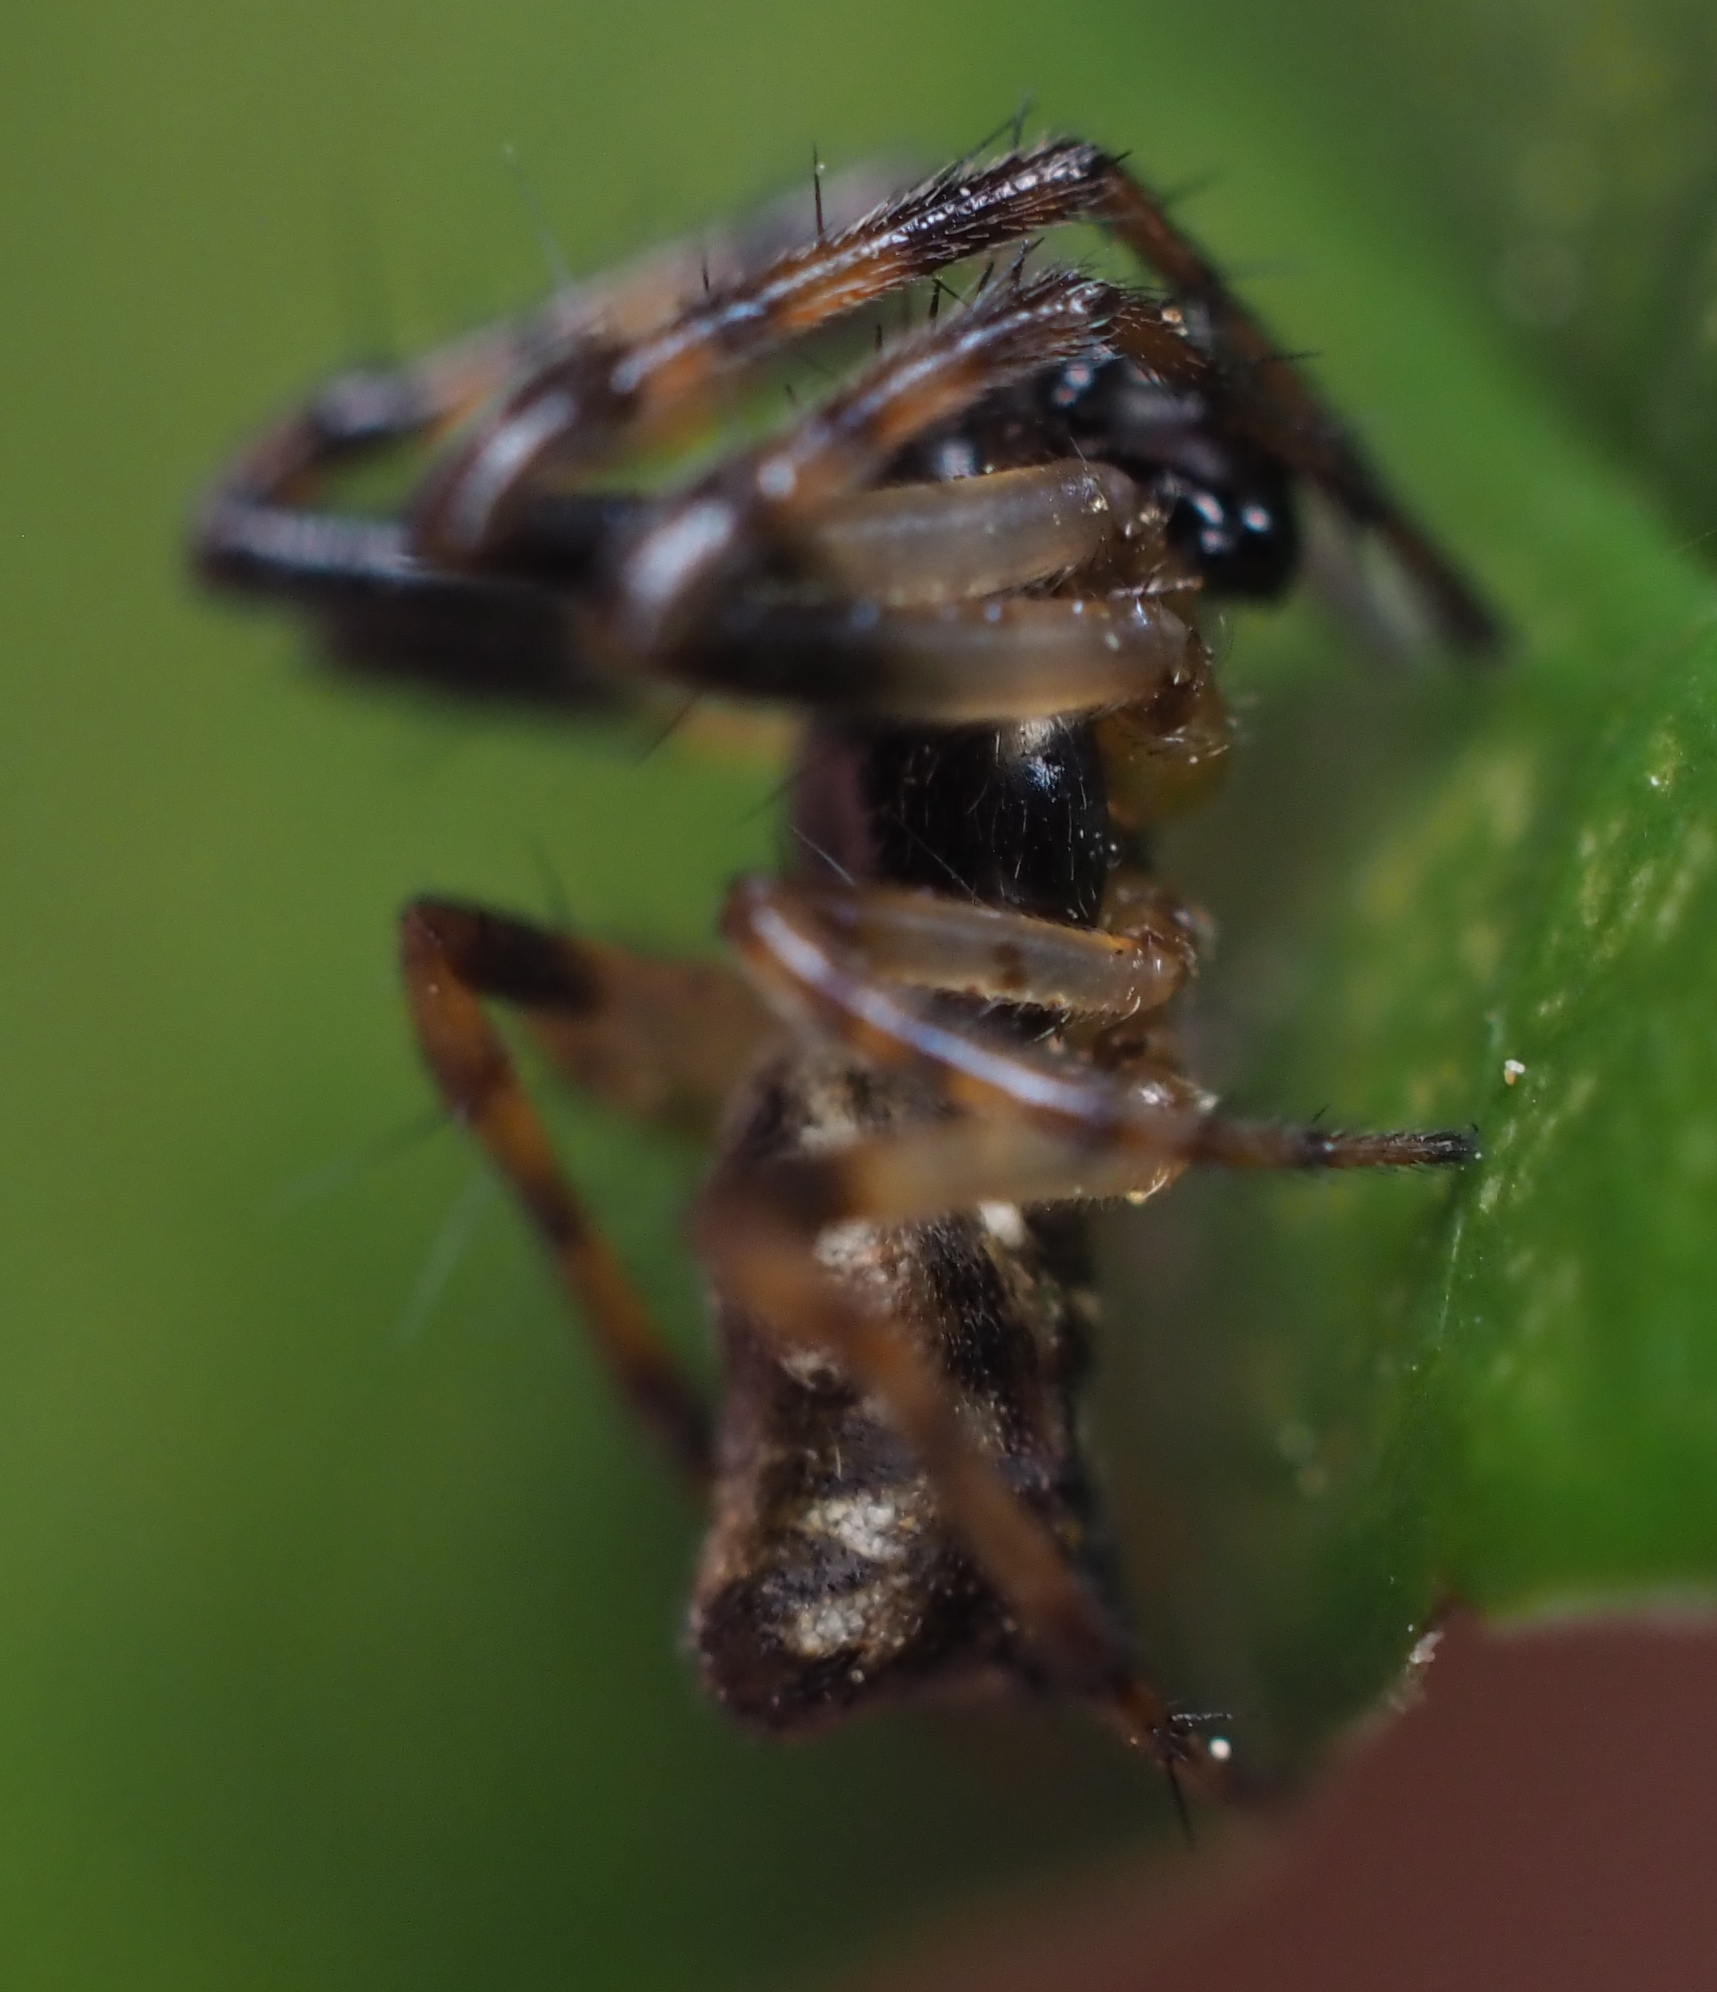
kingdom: Animalia
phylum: Arthropoda
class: Arachnida
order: Araneae
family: Araneidae
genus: Cyclosa
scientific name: Cyclosa conica
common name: Conical trashline orbweaver
